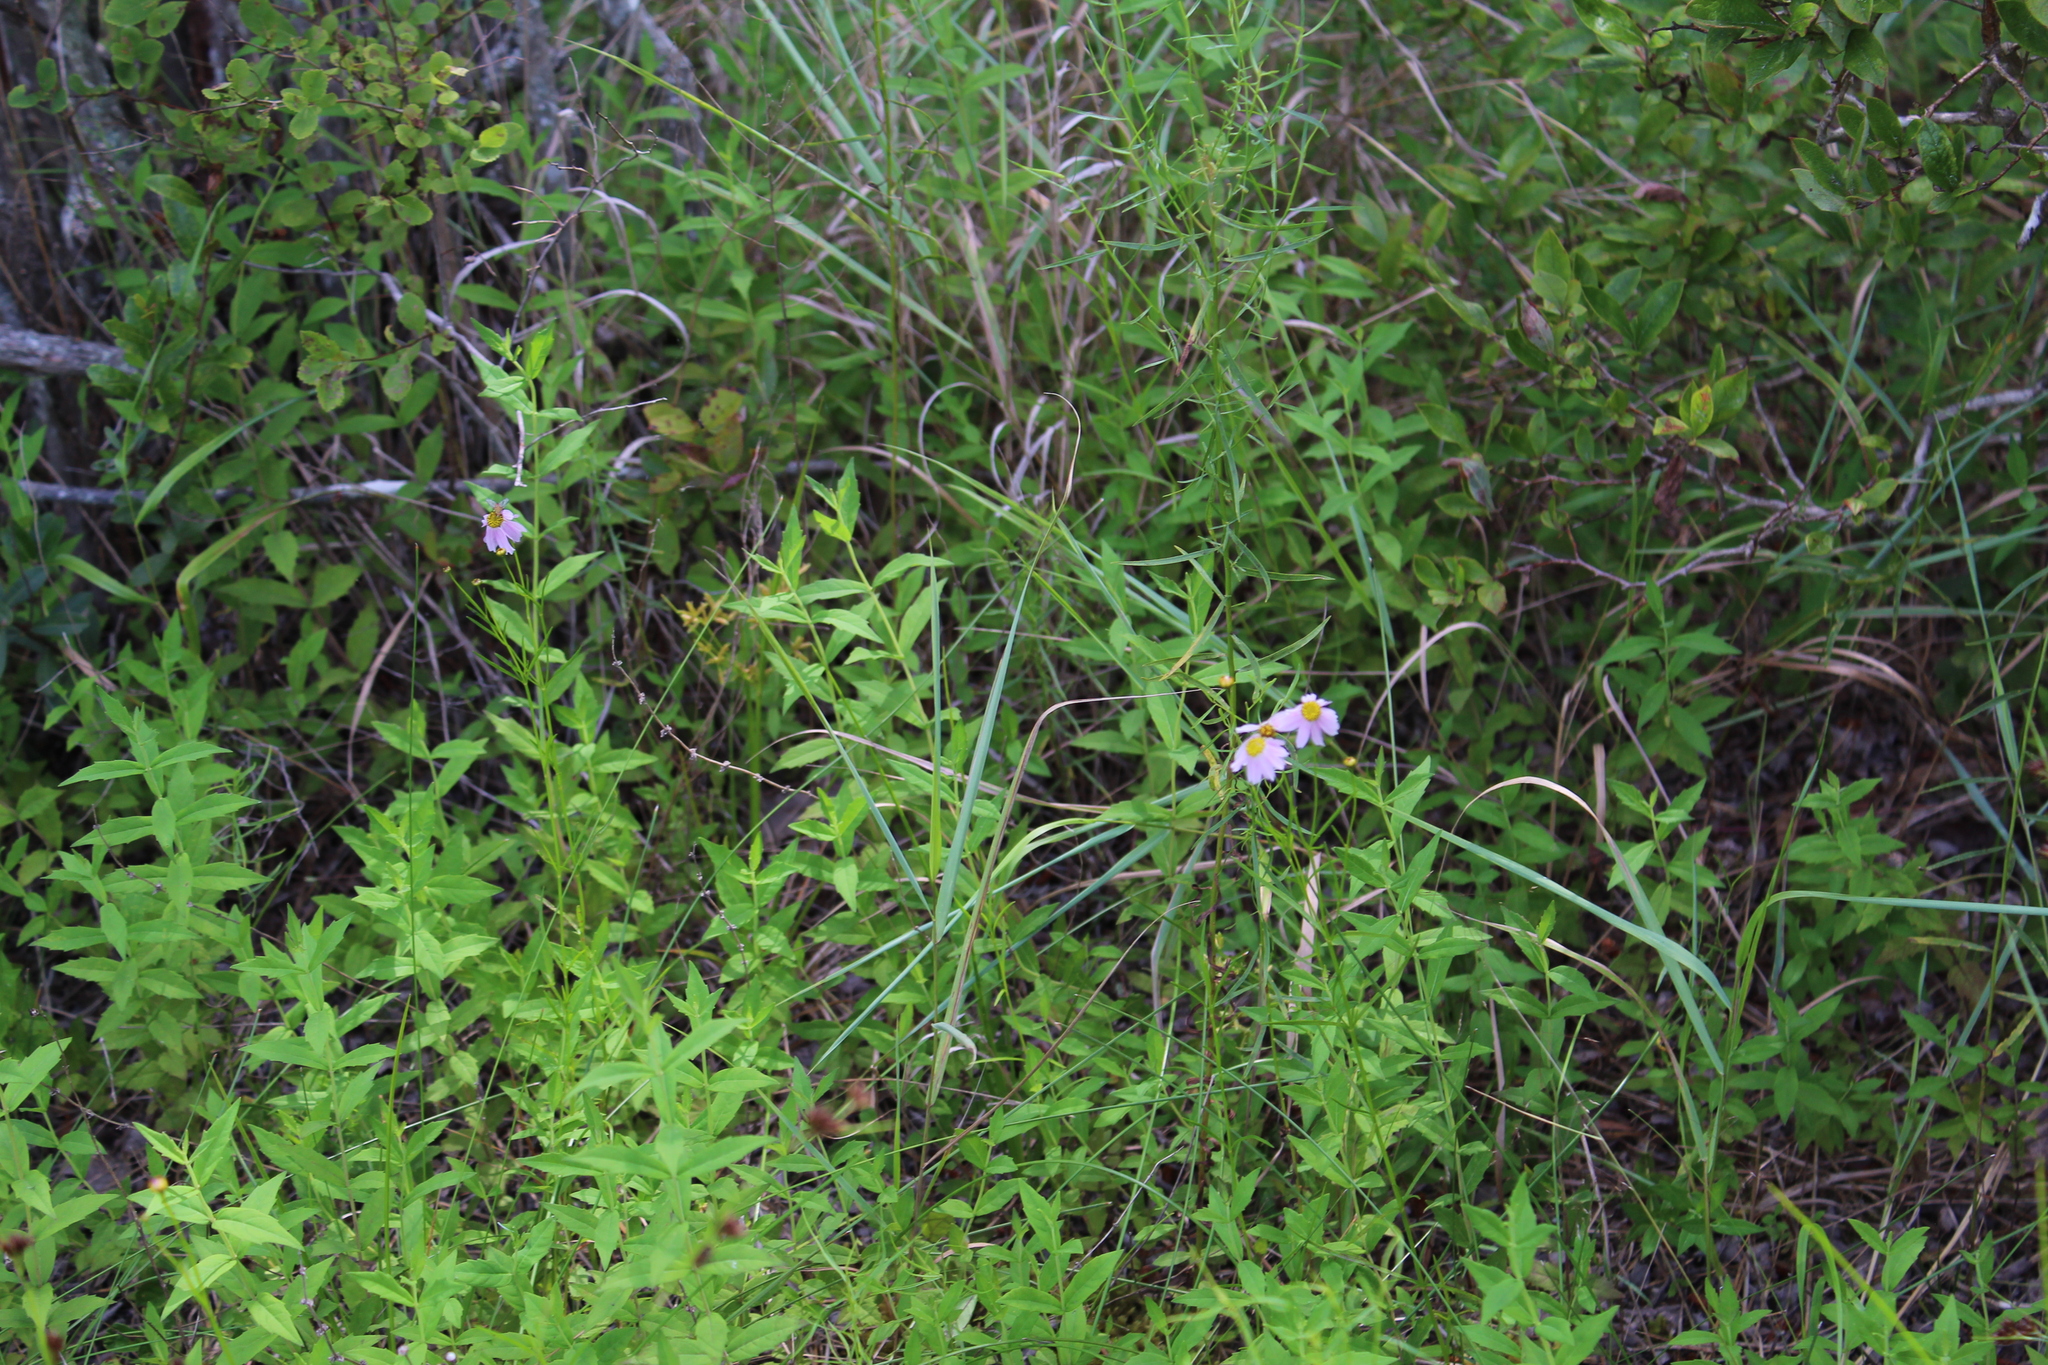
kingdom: Plantae
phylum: Tracheophyta
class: Magnoliopsida
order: Asterales
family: Asteraceae
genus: Coreopsis
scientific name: Coreopsis rosea
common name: Pink coreopsis
